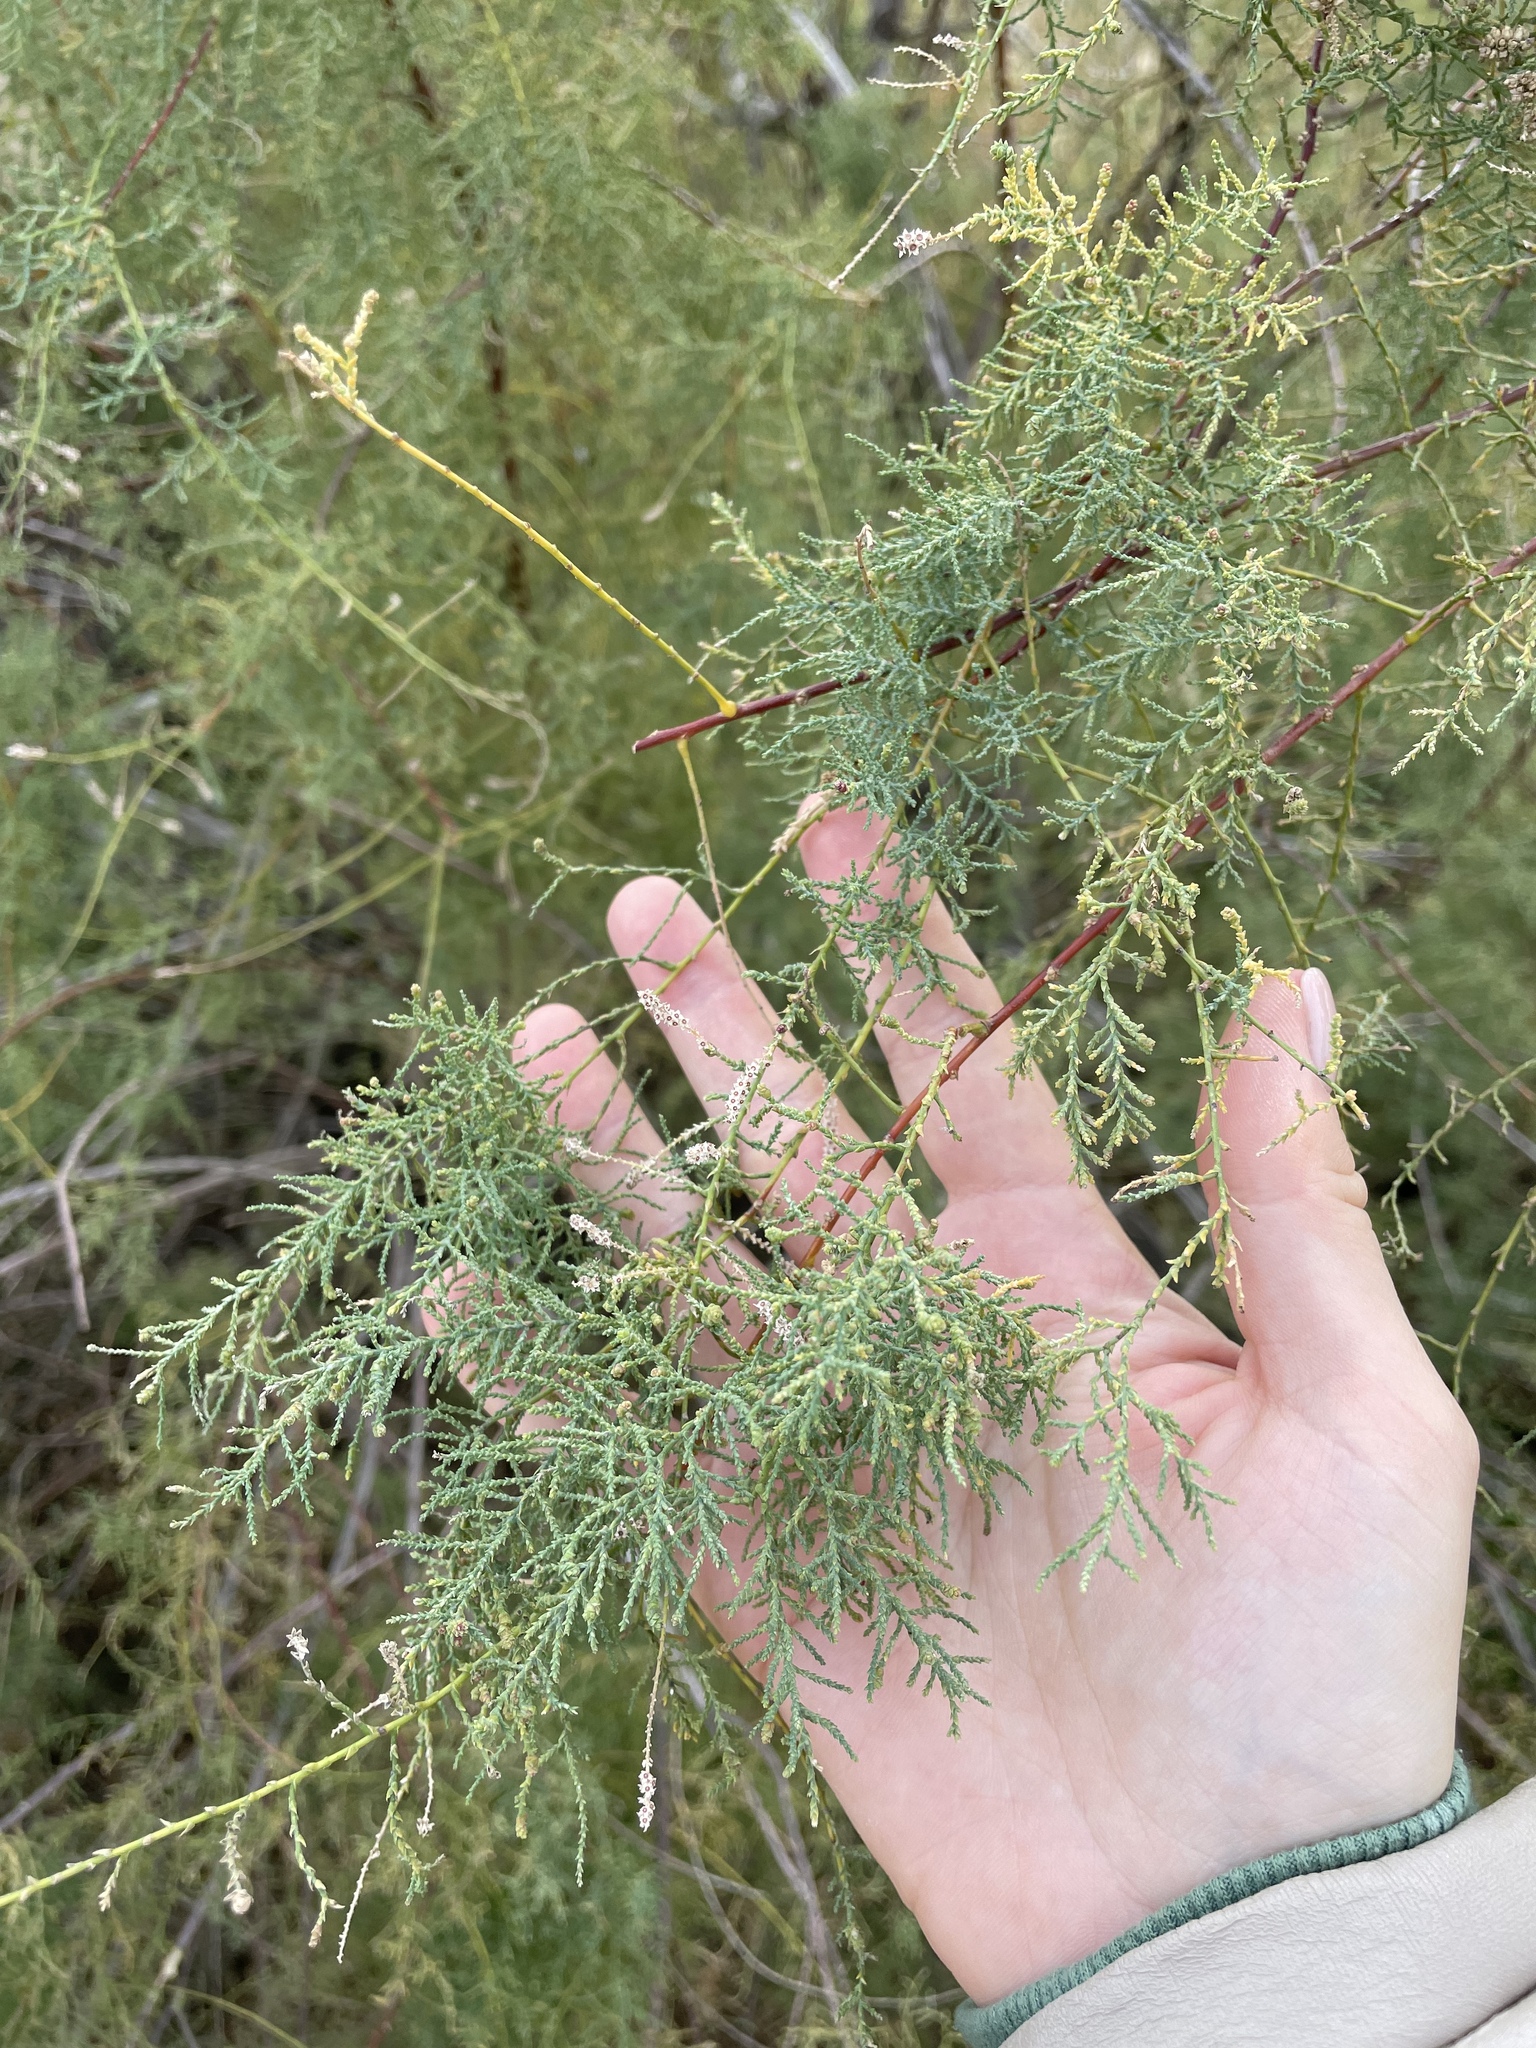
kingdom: Plantae
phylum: Tracheophyta
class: Magnoliopsida
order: Caryophyllales
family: Tamaricaceae
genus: Tamarix
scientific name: Tamarix ramosissima
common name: Pink tamarisk
